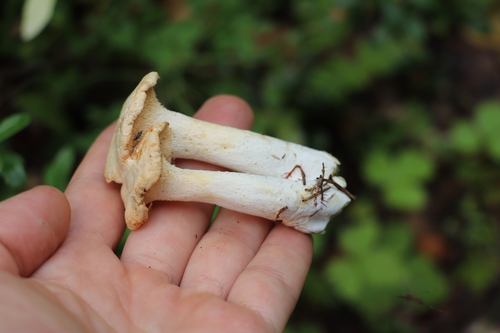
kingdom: Fungi
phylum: Basidiomycota
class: Agaricomycetes
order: Cantharellales
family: Hydnaceae
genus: Hydnum
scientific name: Hydnum repandum
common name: Wood hedgehog
